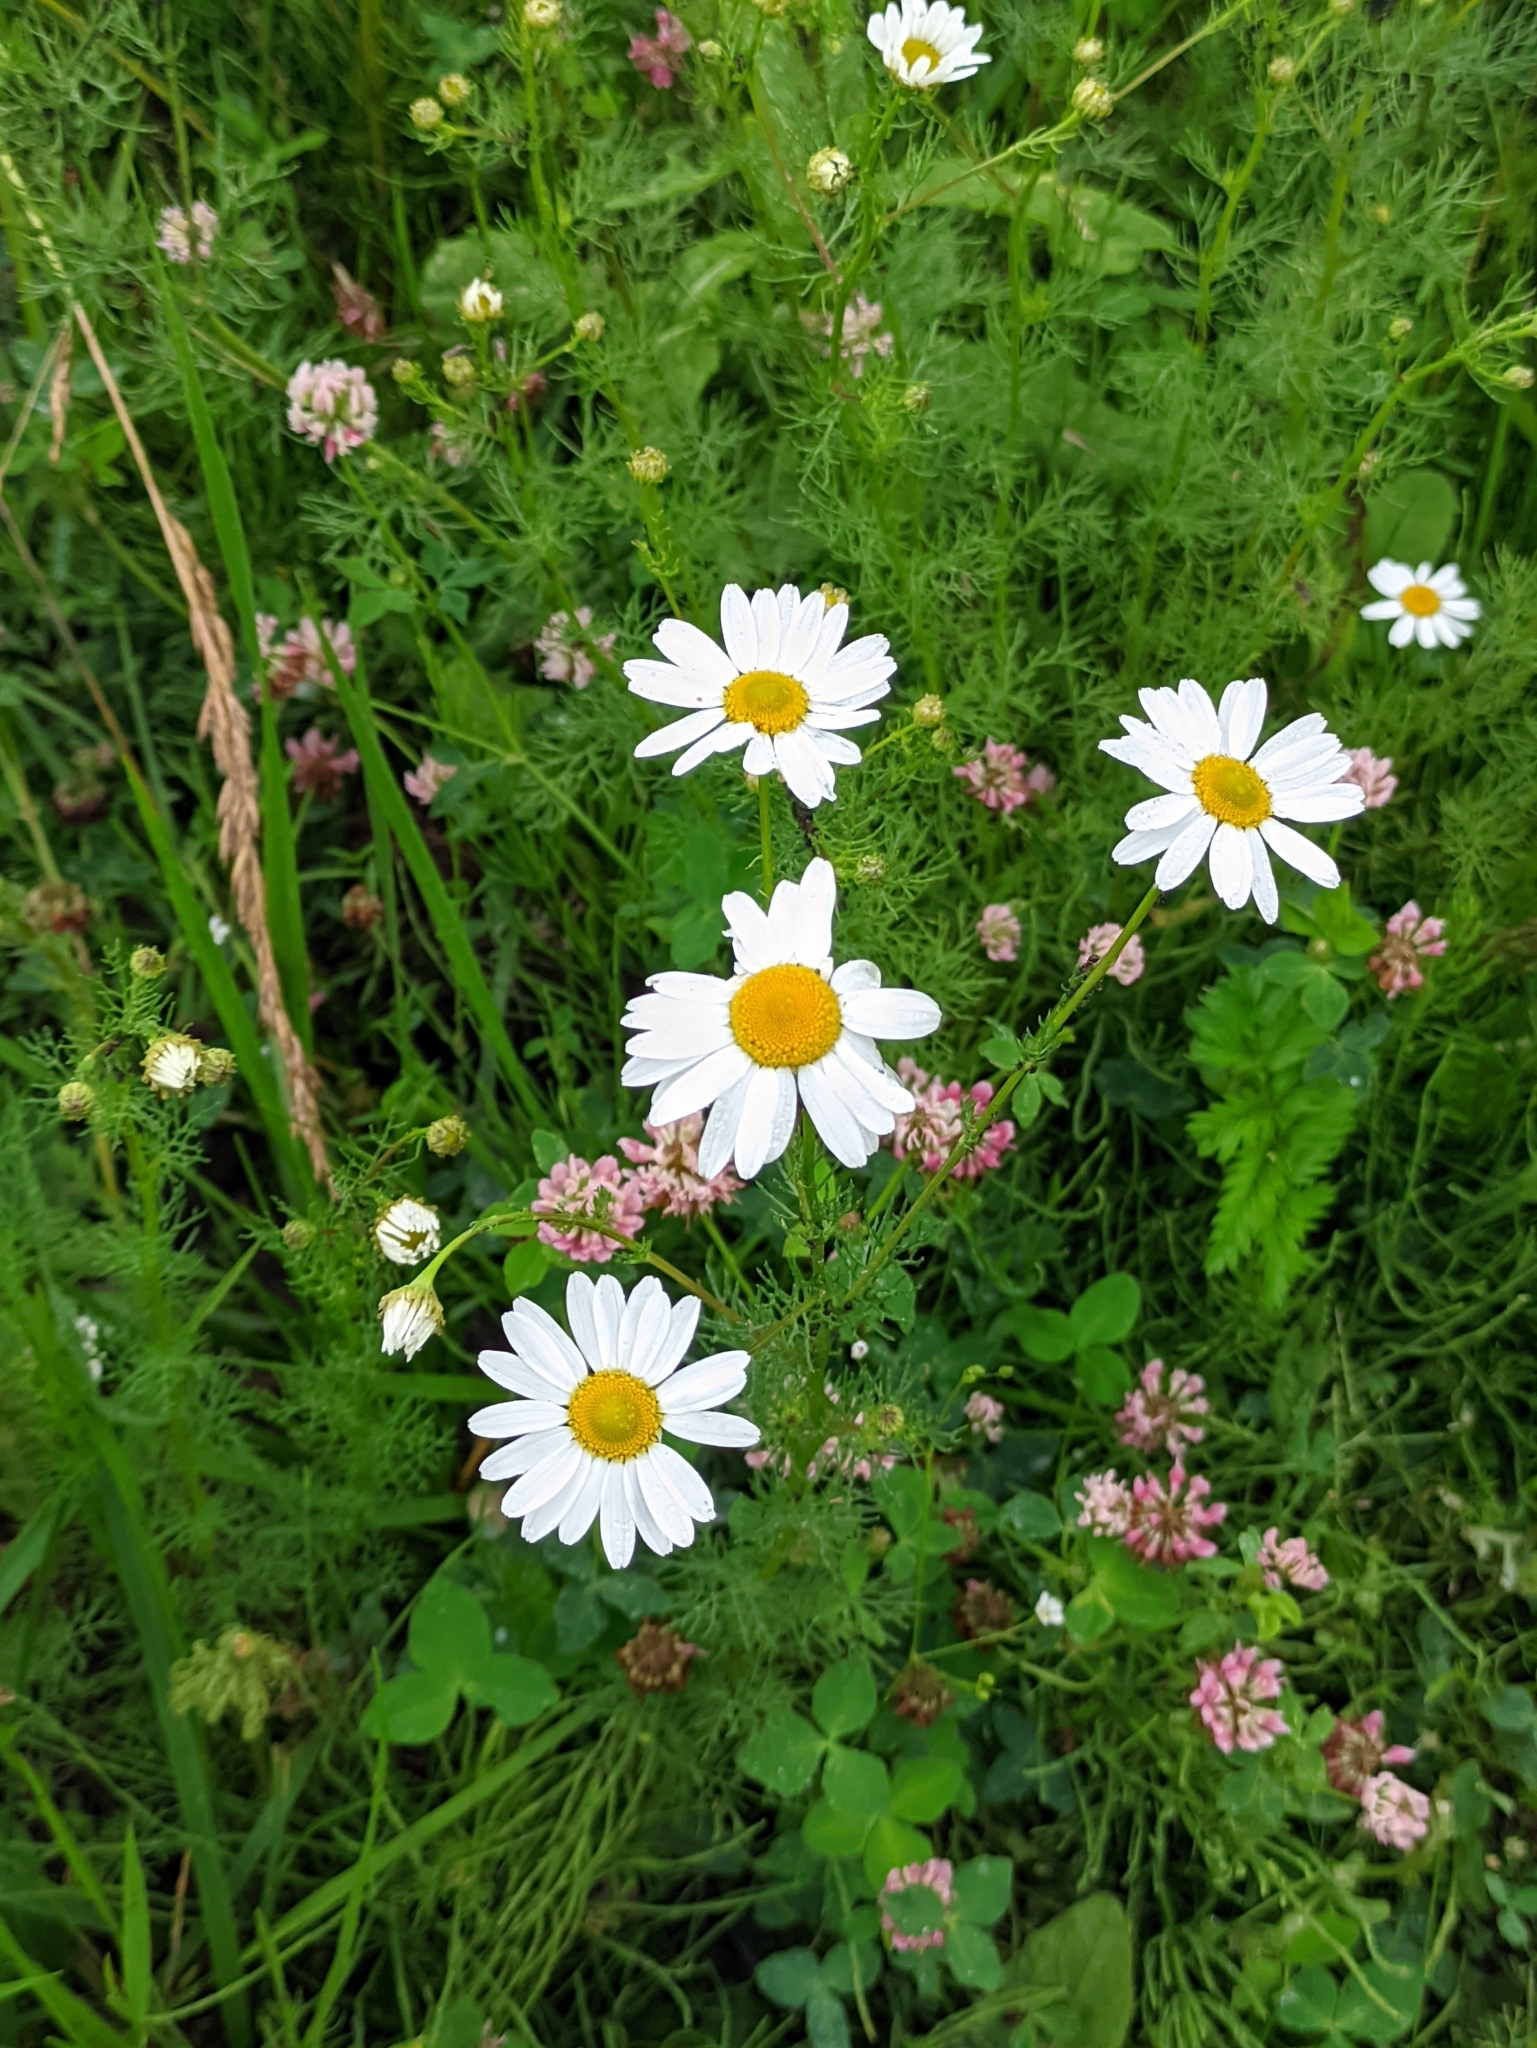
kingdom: Plantae
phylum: Tracheophyta
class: Magnoliopsida
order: Asterales
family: Asteraceae
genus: Tripleurospermum
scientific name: Tripleurospermum inodorum
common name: Scentless mayweed
